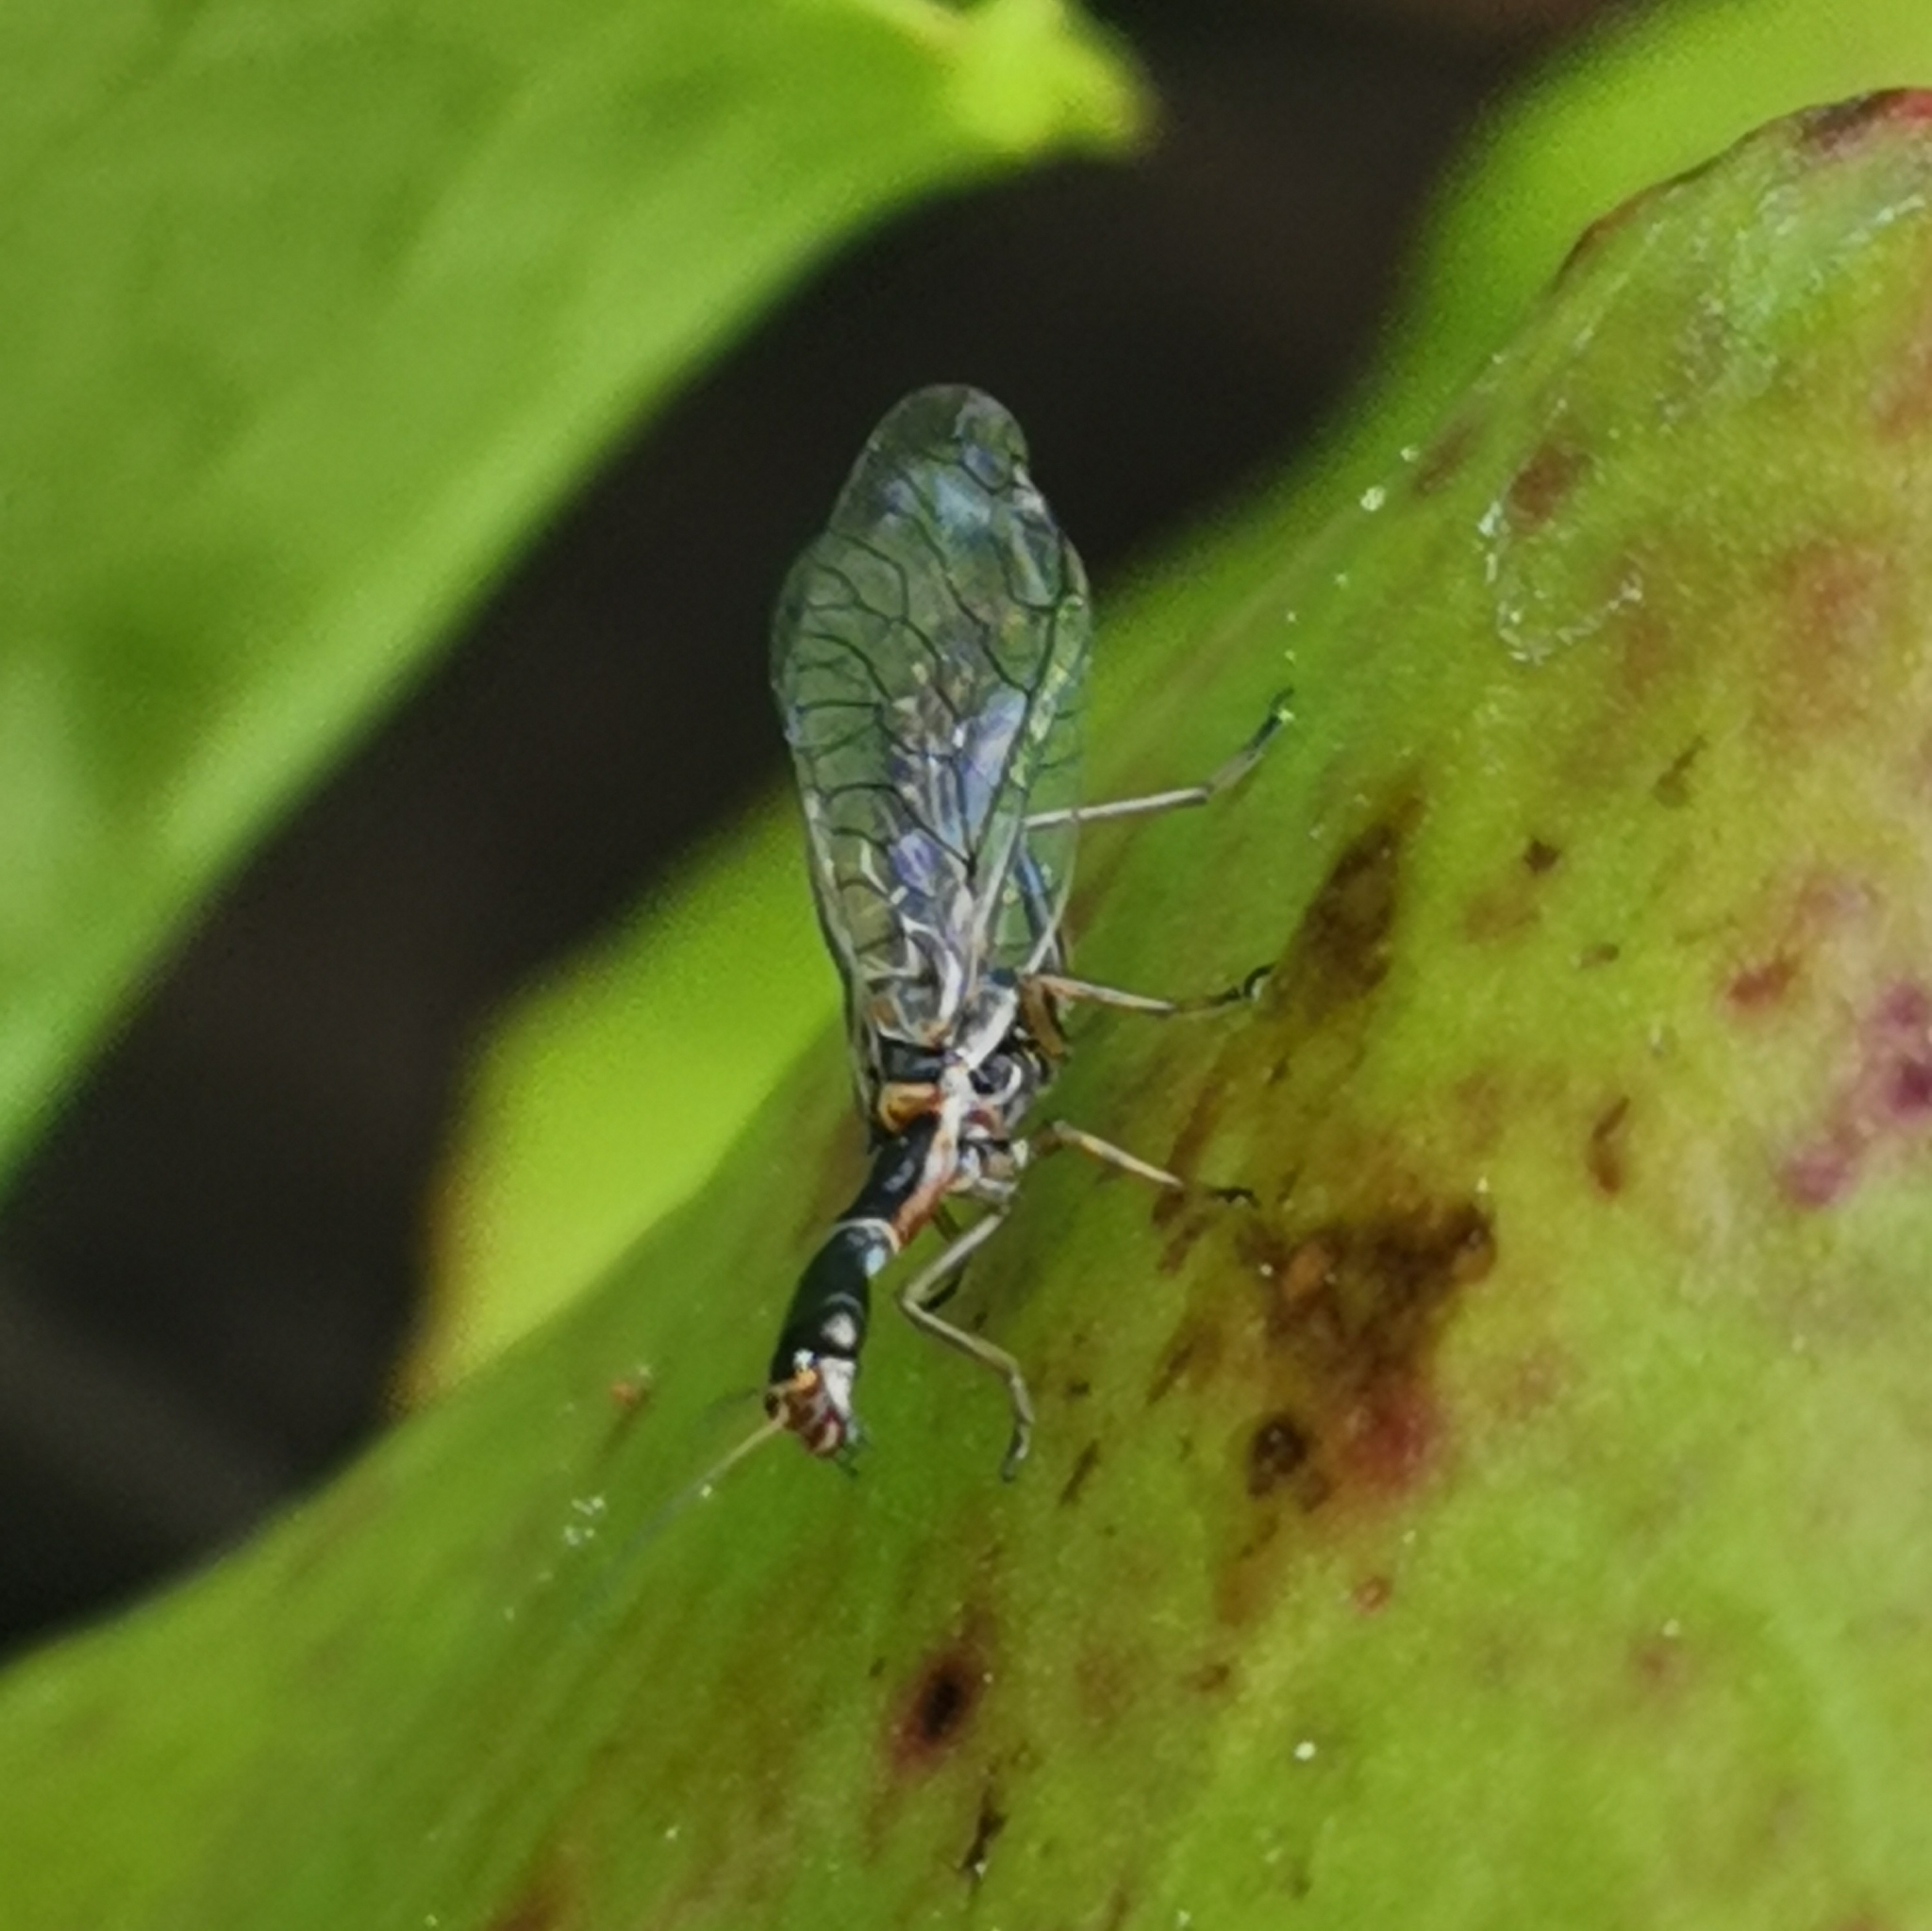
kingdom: Animalia
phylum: Arthropoda
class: Insecta
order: Raphidioptera
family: Raphidiidae
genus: Xanthostigma
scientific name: Xanthostigma xanthostigma
